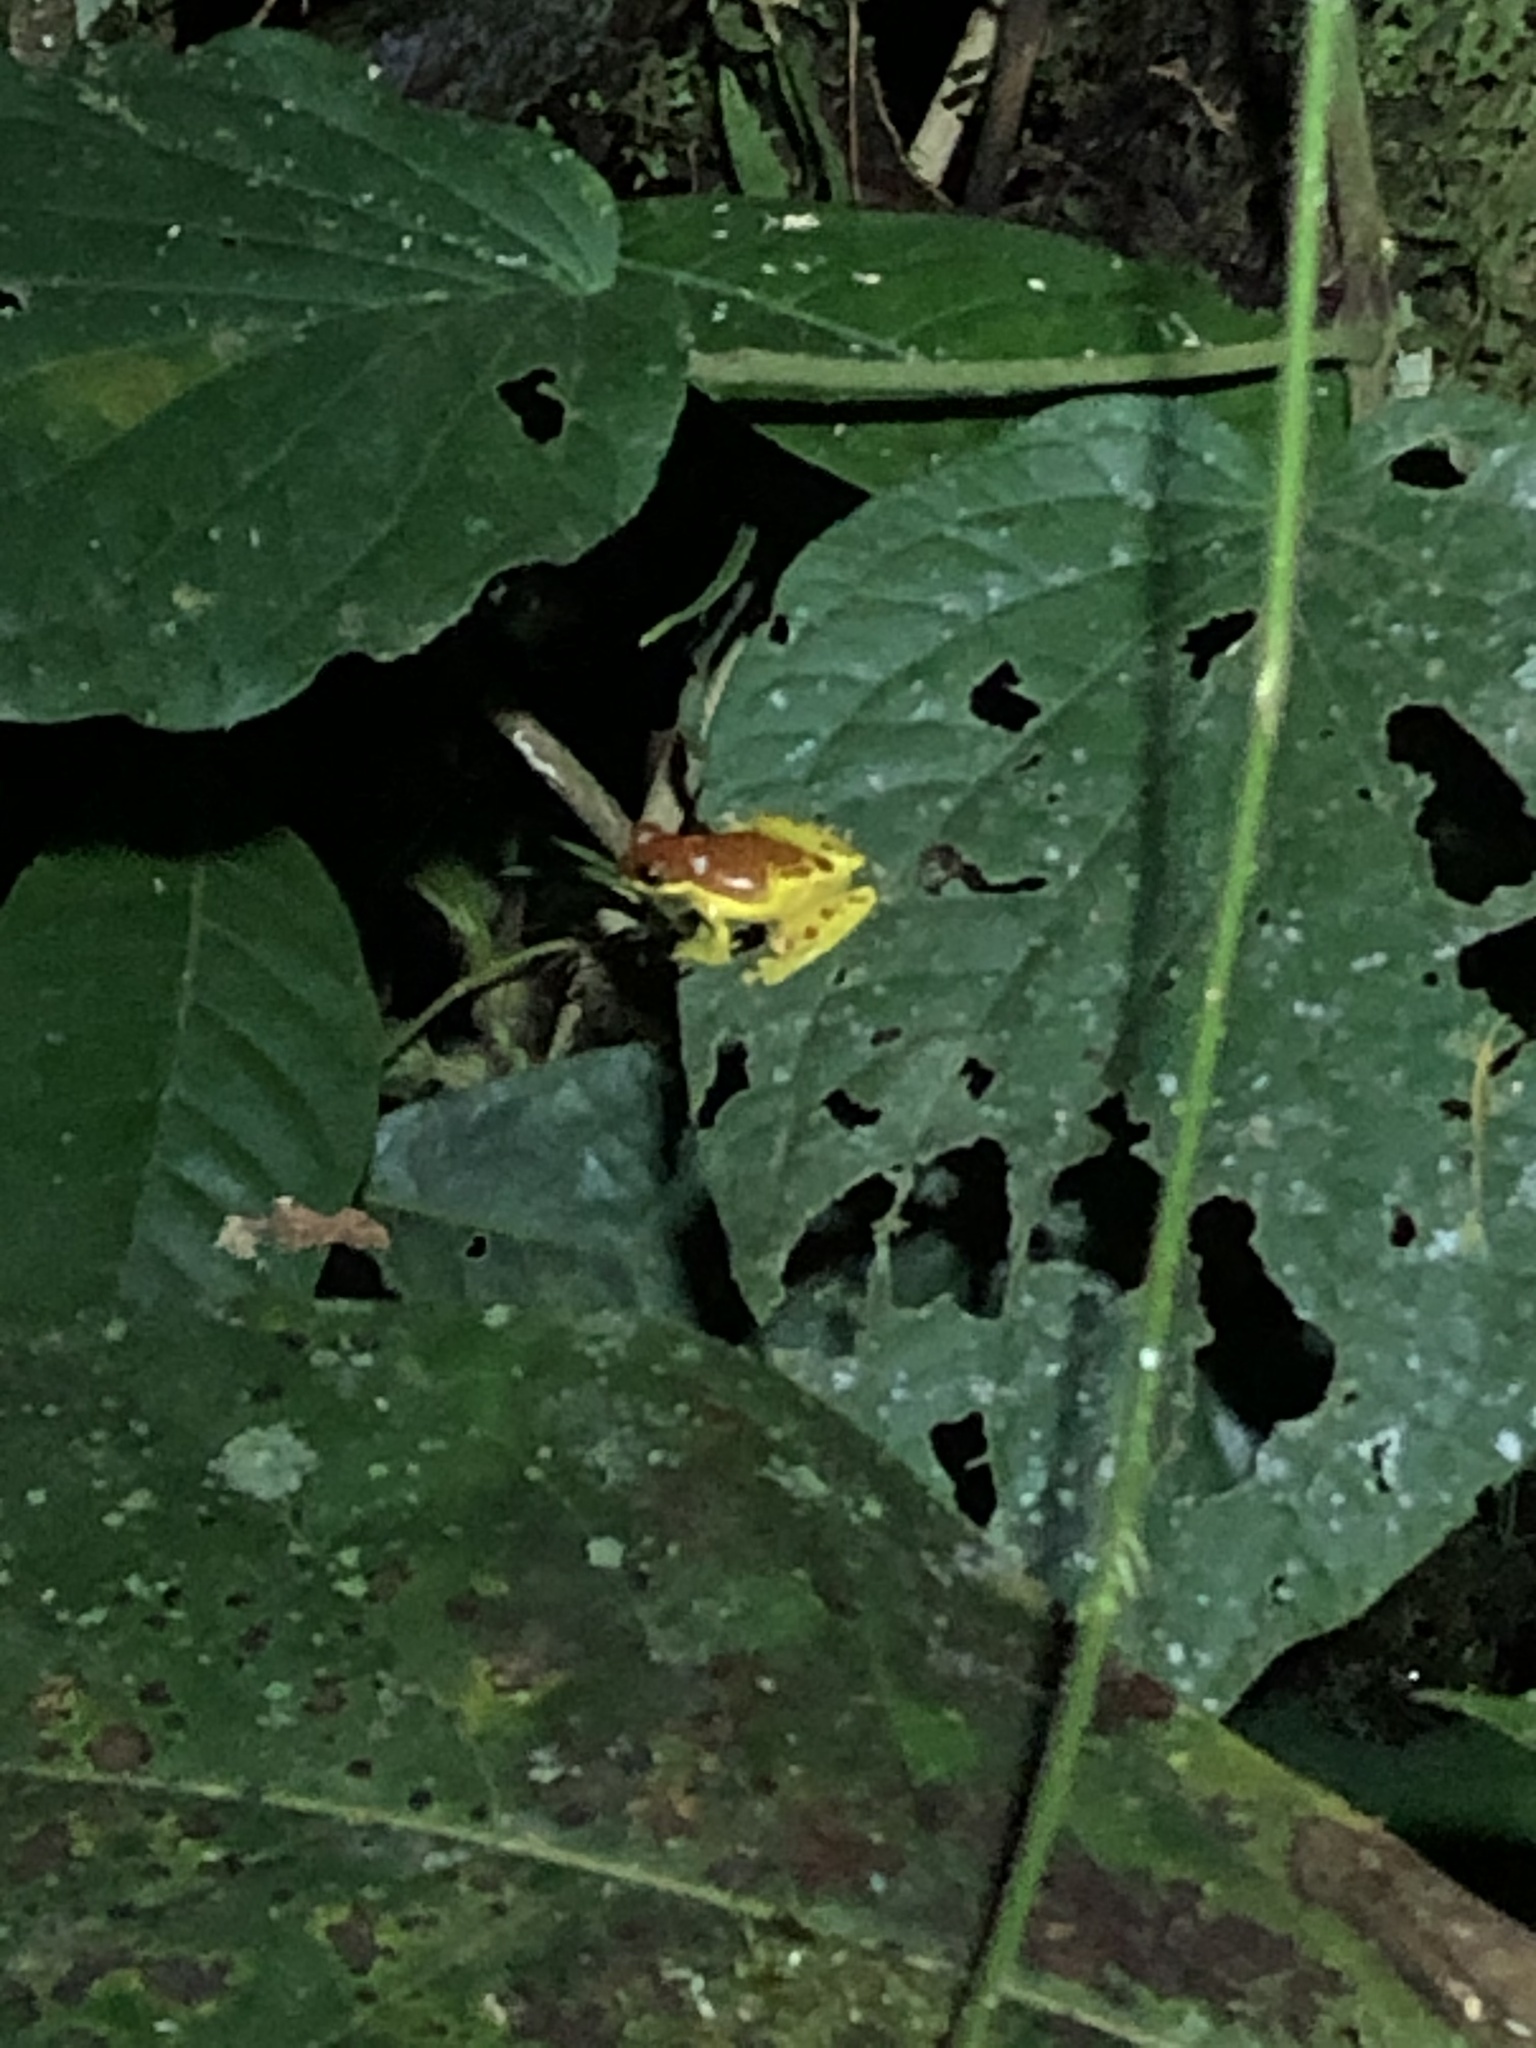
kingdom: Animalia
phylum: Chordata
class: Amphibia
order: Anura
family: Hylidae
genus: Dendropsophus
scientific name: Dendropsophus rhodopeplus
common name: Red-skirted treefrog
